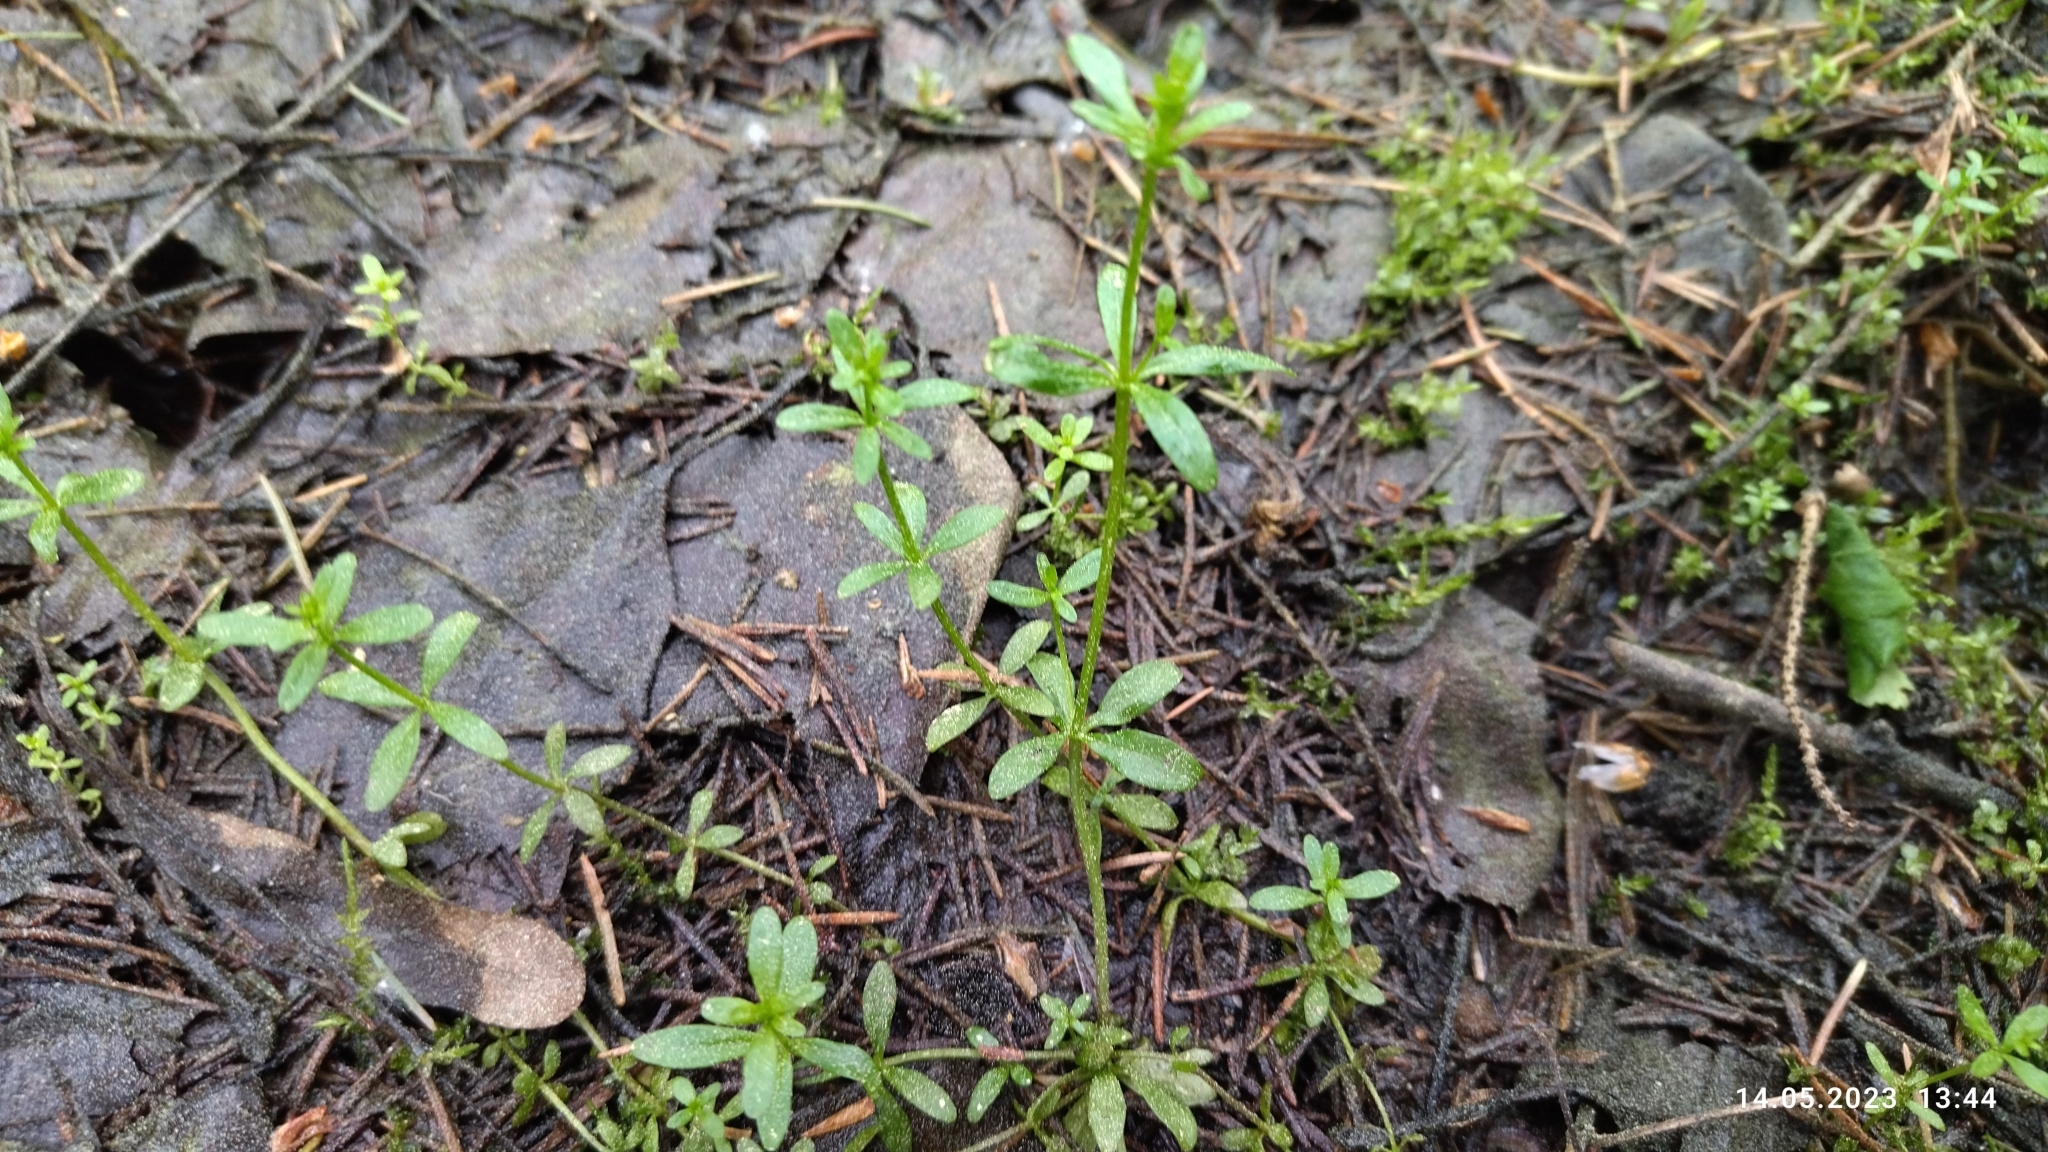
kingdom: Plantae
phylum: Tracheophyta
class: Magnoliopsida
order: Gentianales
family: Rubiaceae
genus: Galium
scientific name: Galium palustre
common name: Common marsh-bedstraw
